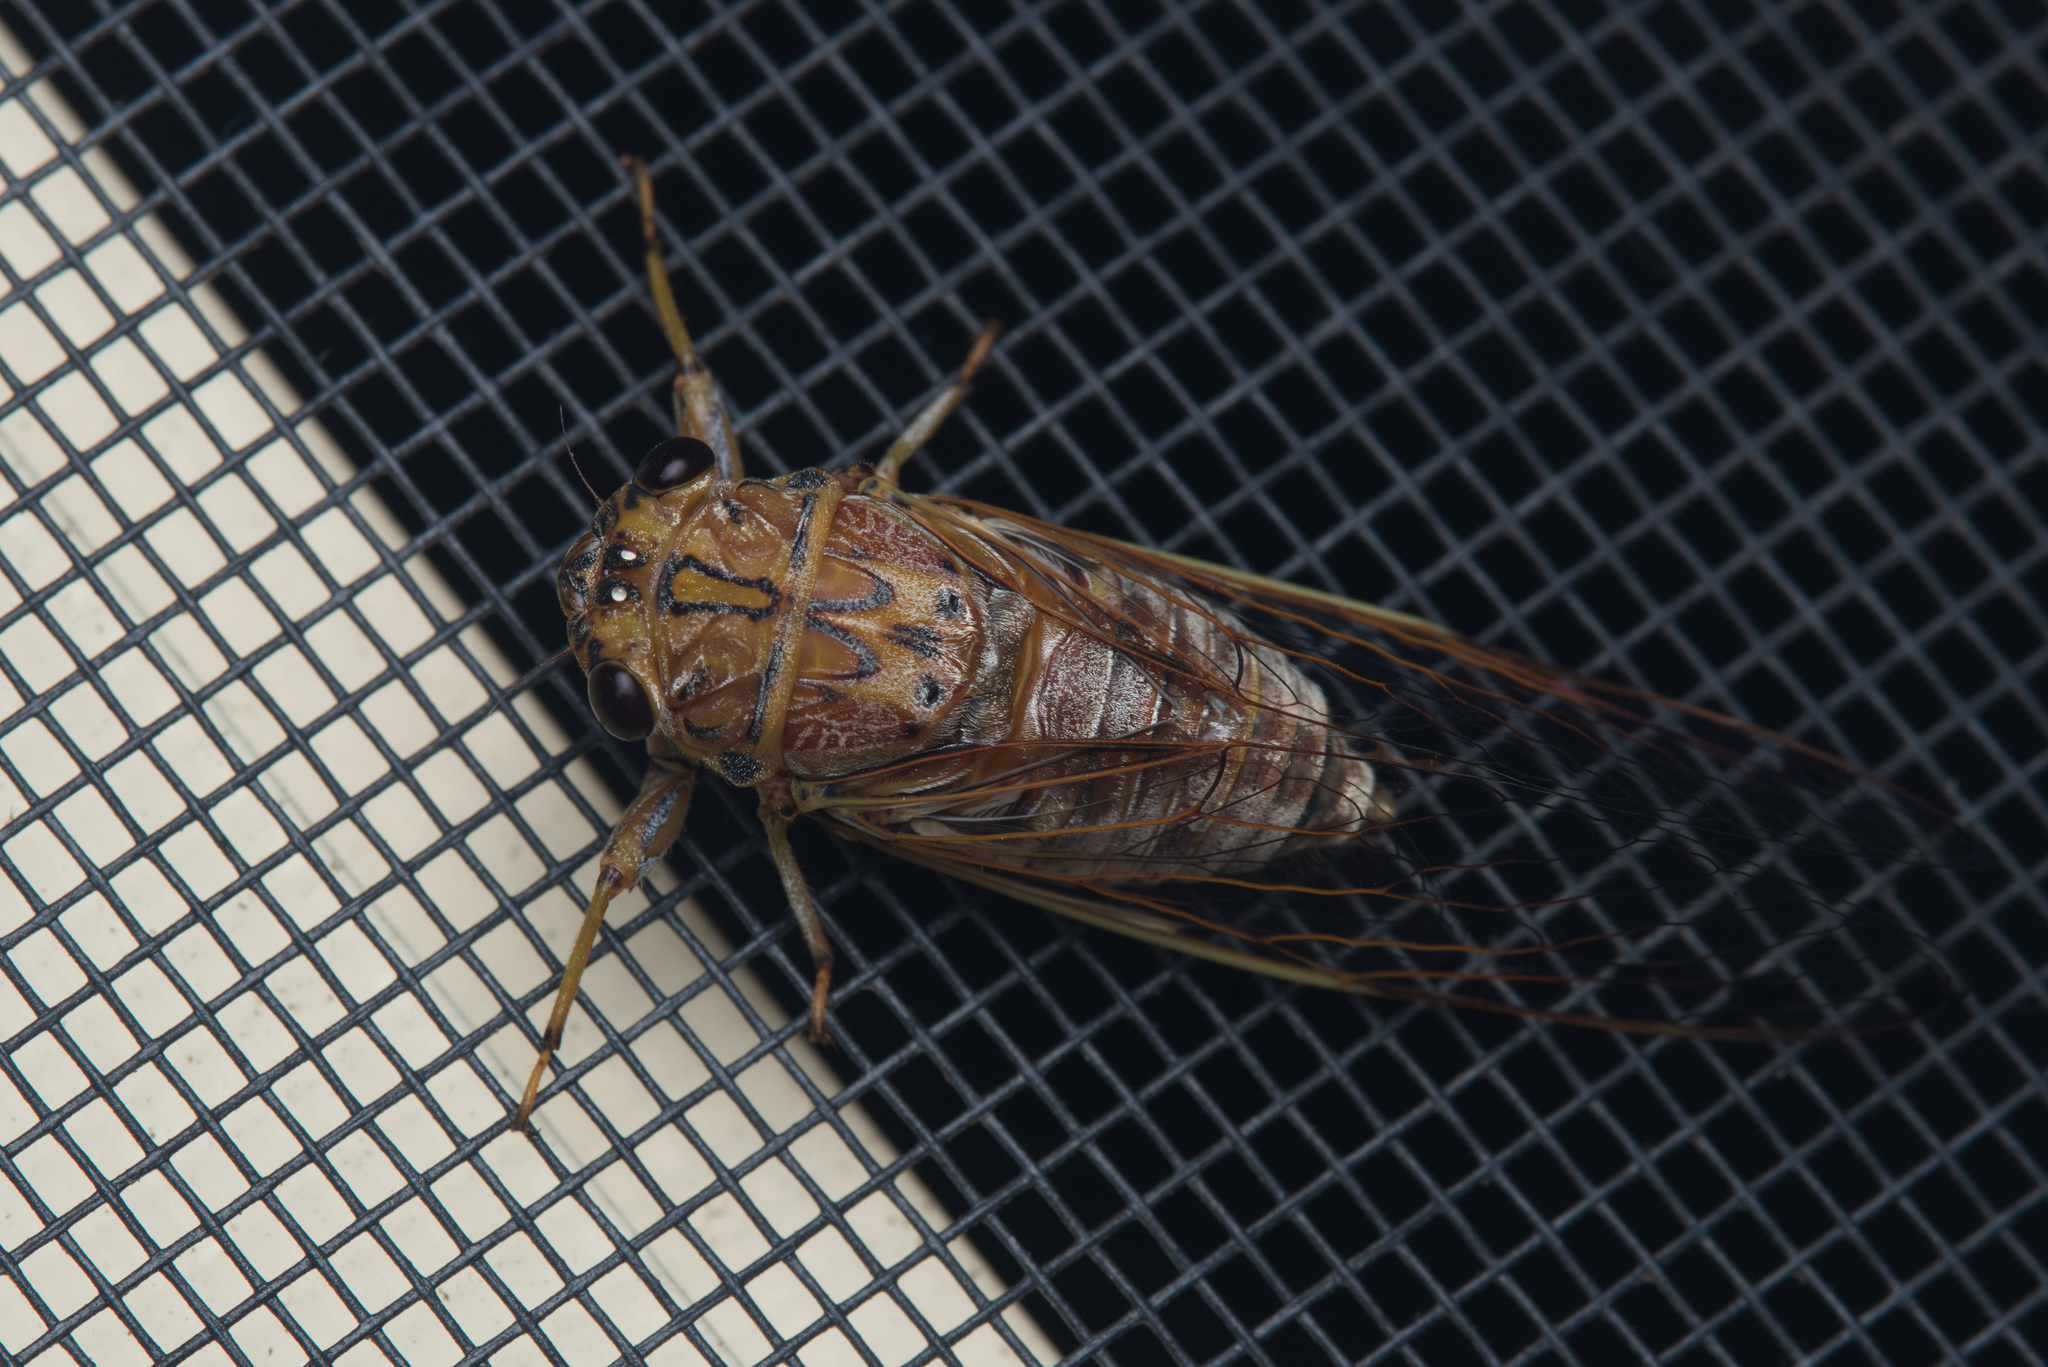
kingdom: Animalia
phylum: Arthropoda
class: Insecta
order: Hemiptera
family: Cicadidae
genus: Tamasa
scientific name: Tamasa tristigma
